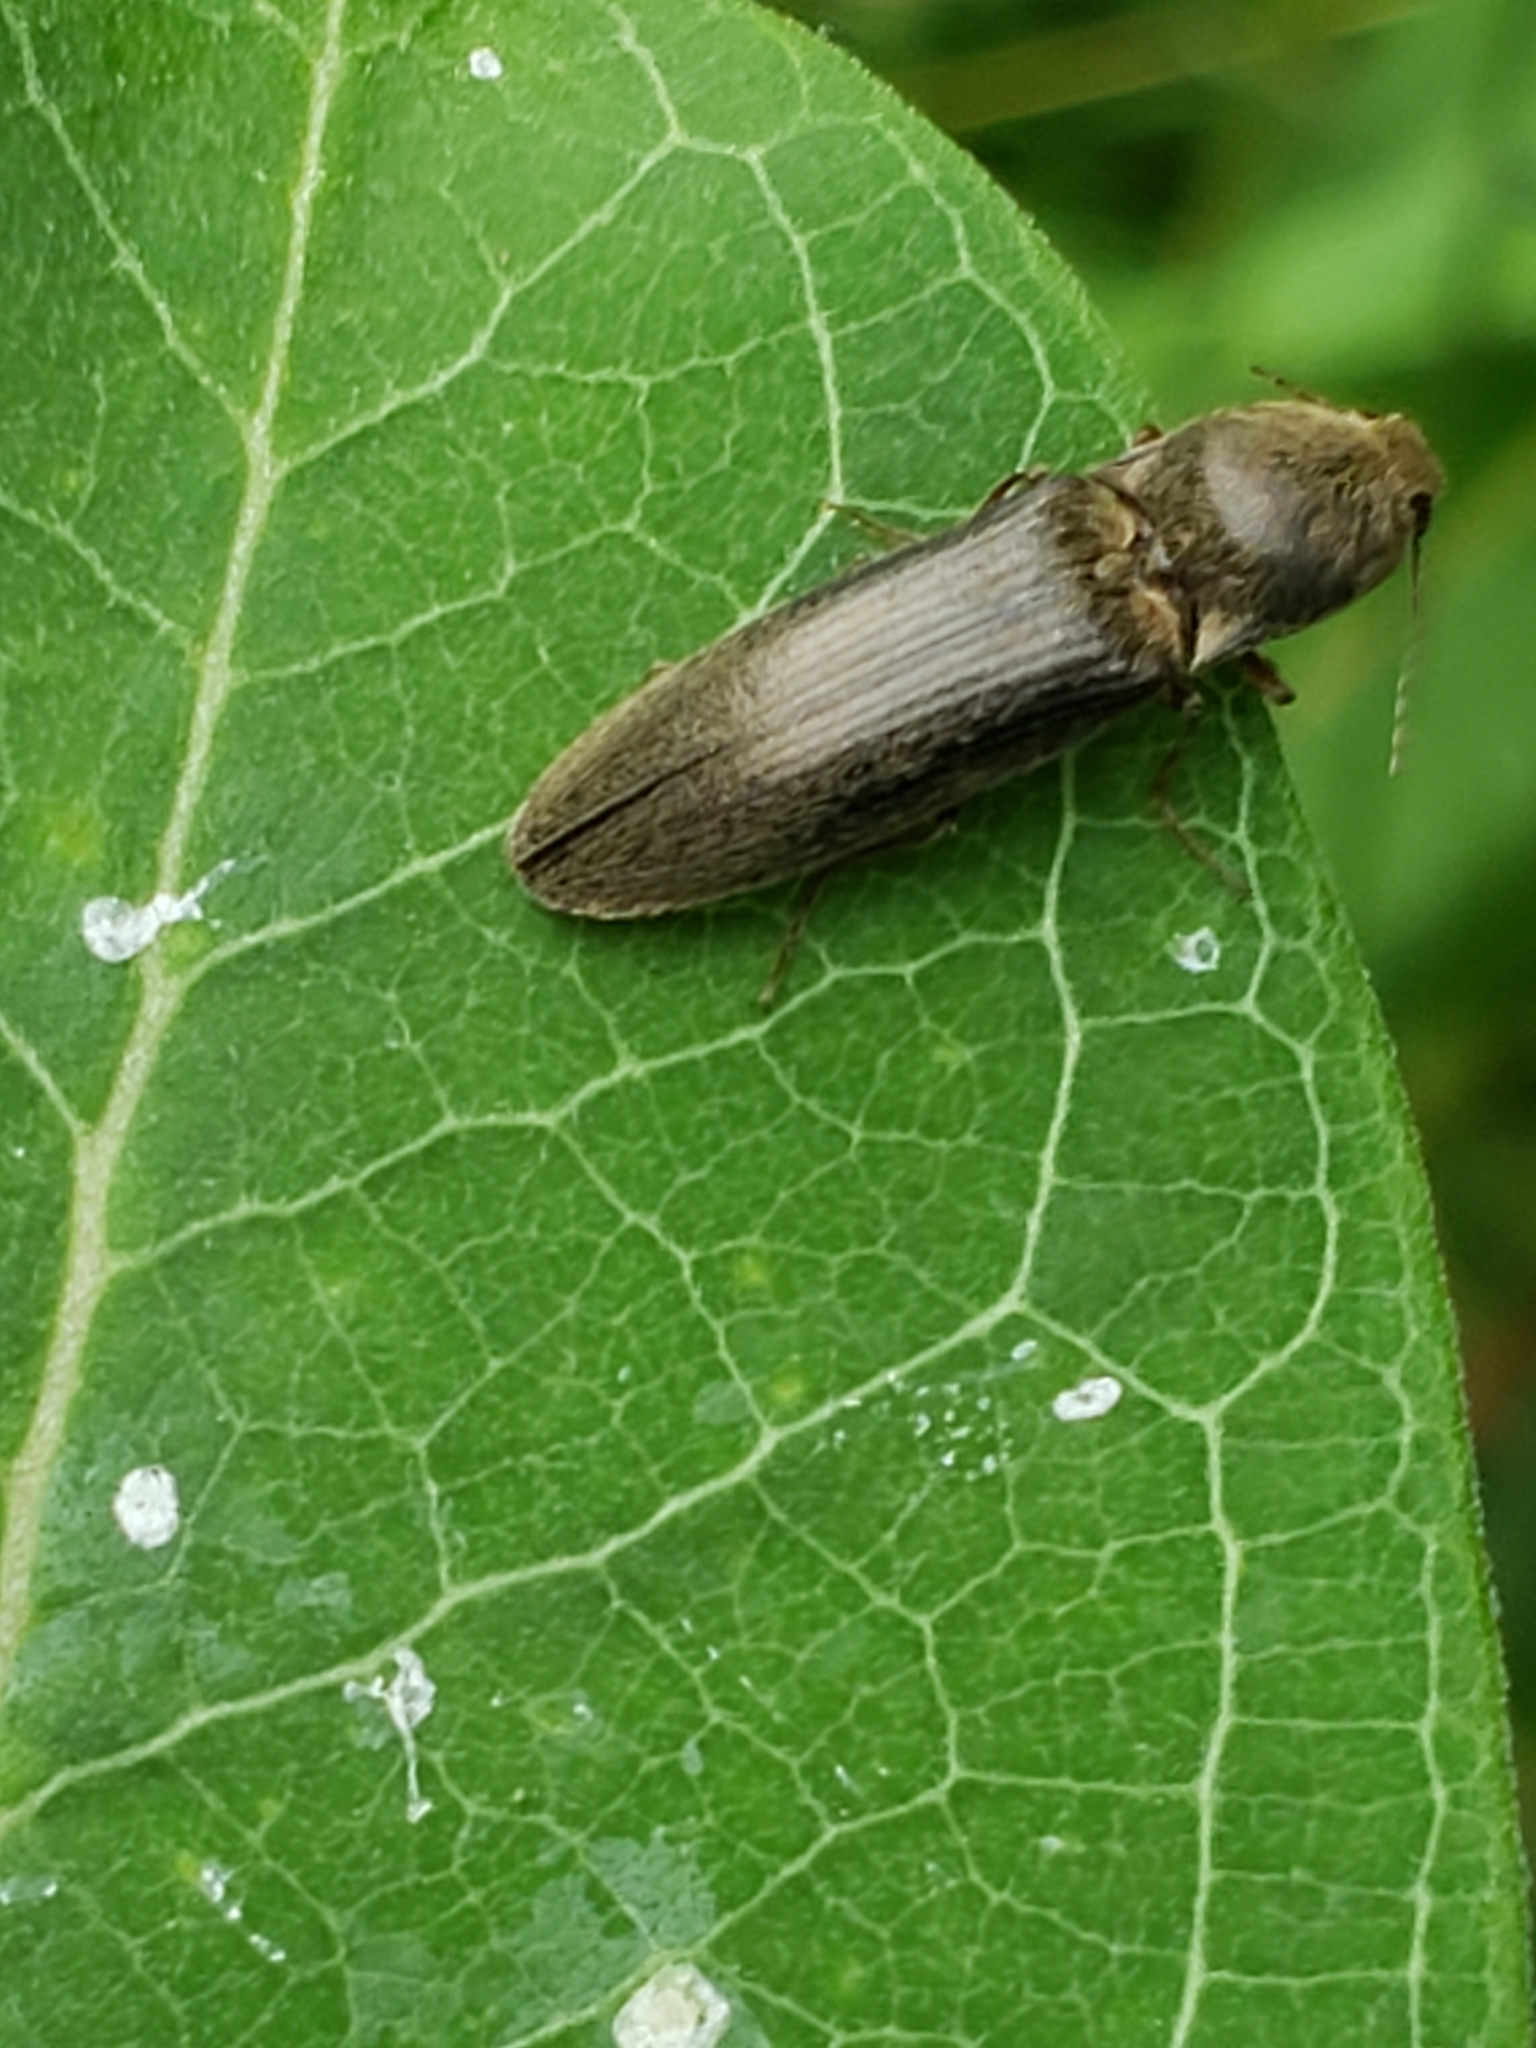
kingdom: Animalia
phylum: Arthropoda
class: Insecta
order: Coleoptera
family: Elateridae
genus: Gambrinus
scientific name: Gambrinus griseus
